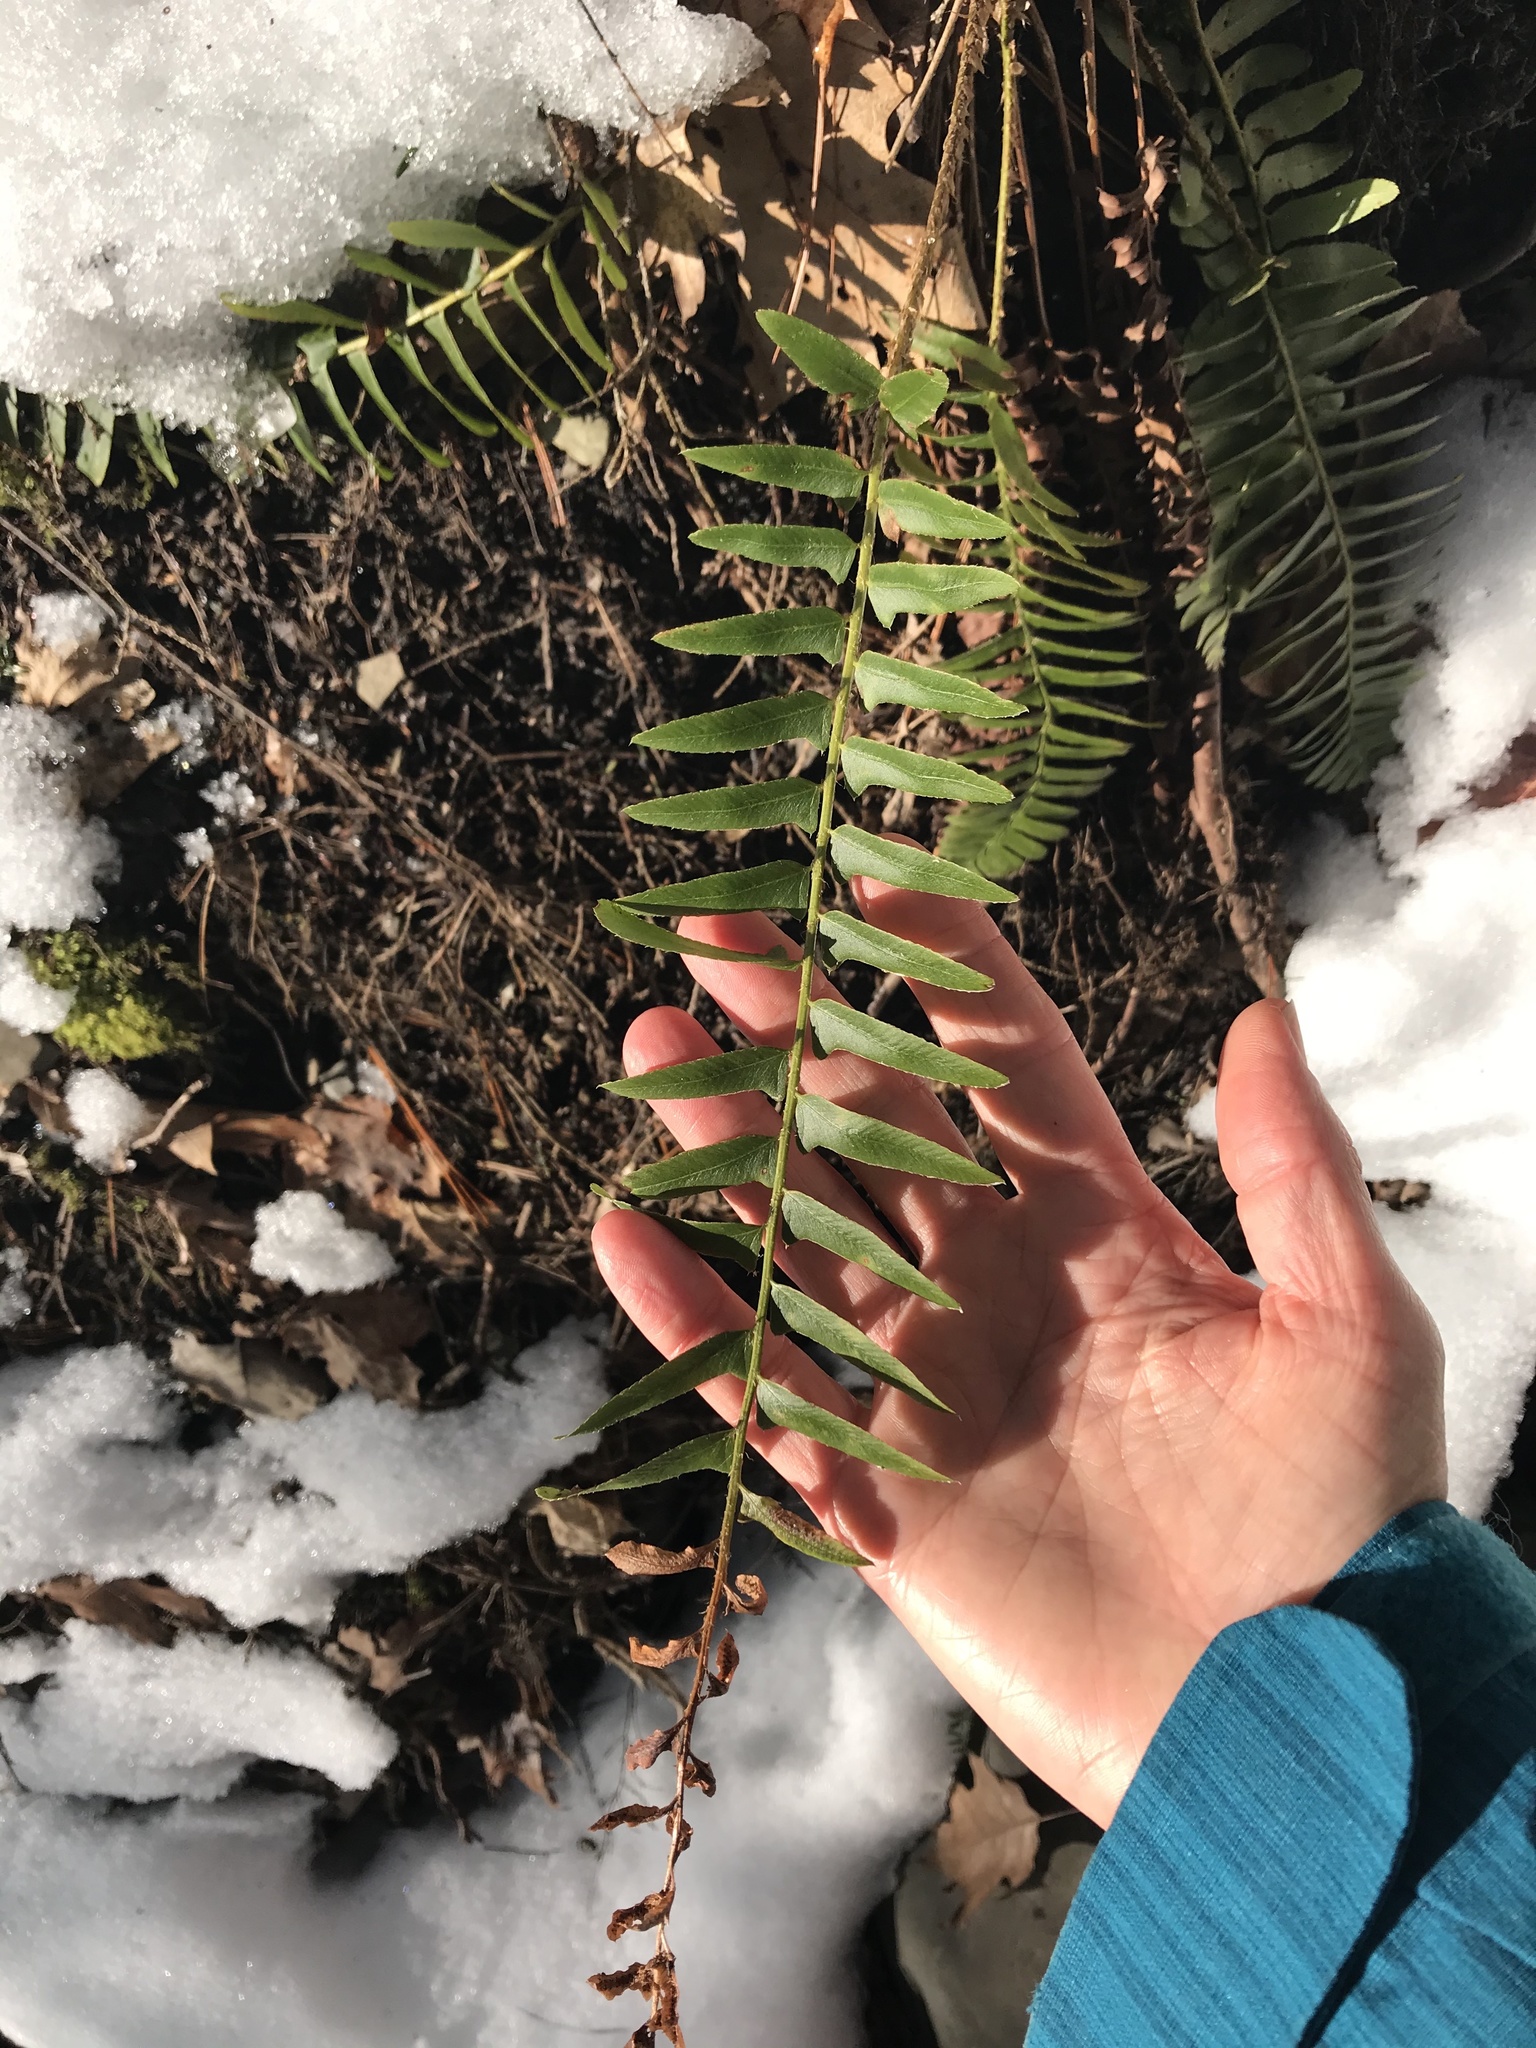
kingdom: Plantae
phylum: Tracheophyta
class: Polypodiopsida
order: Polypodiales
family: Dryopteridaceae
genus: Polystichum
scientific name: Polystichum acrostichoides
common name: Christmas fern
